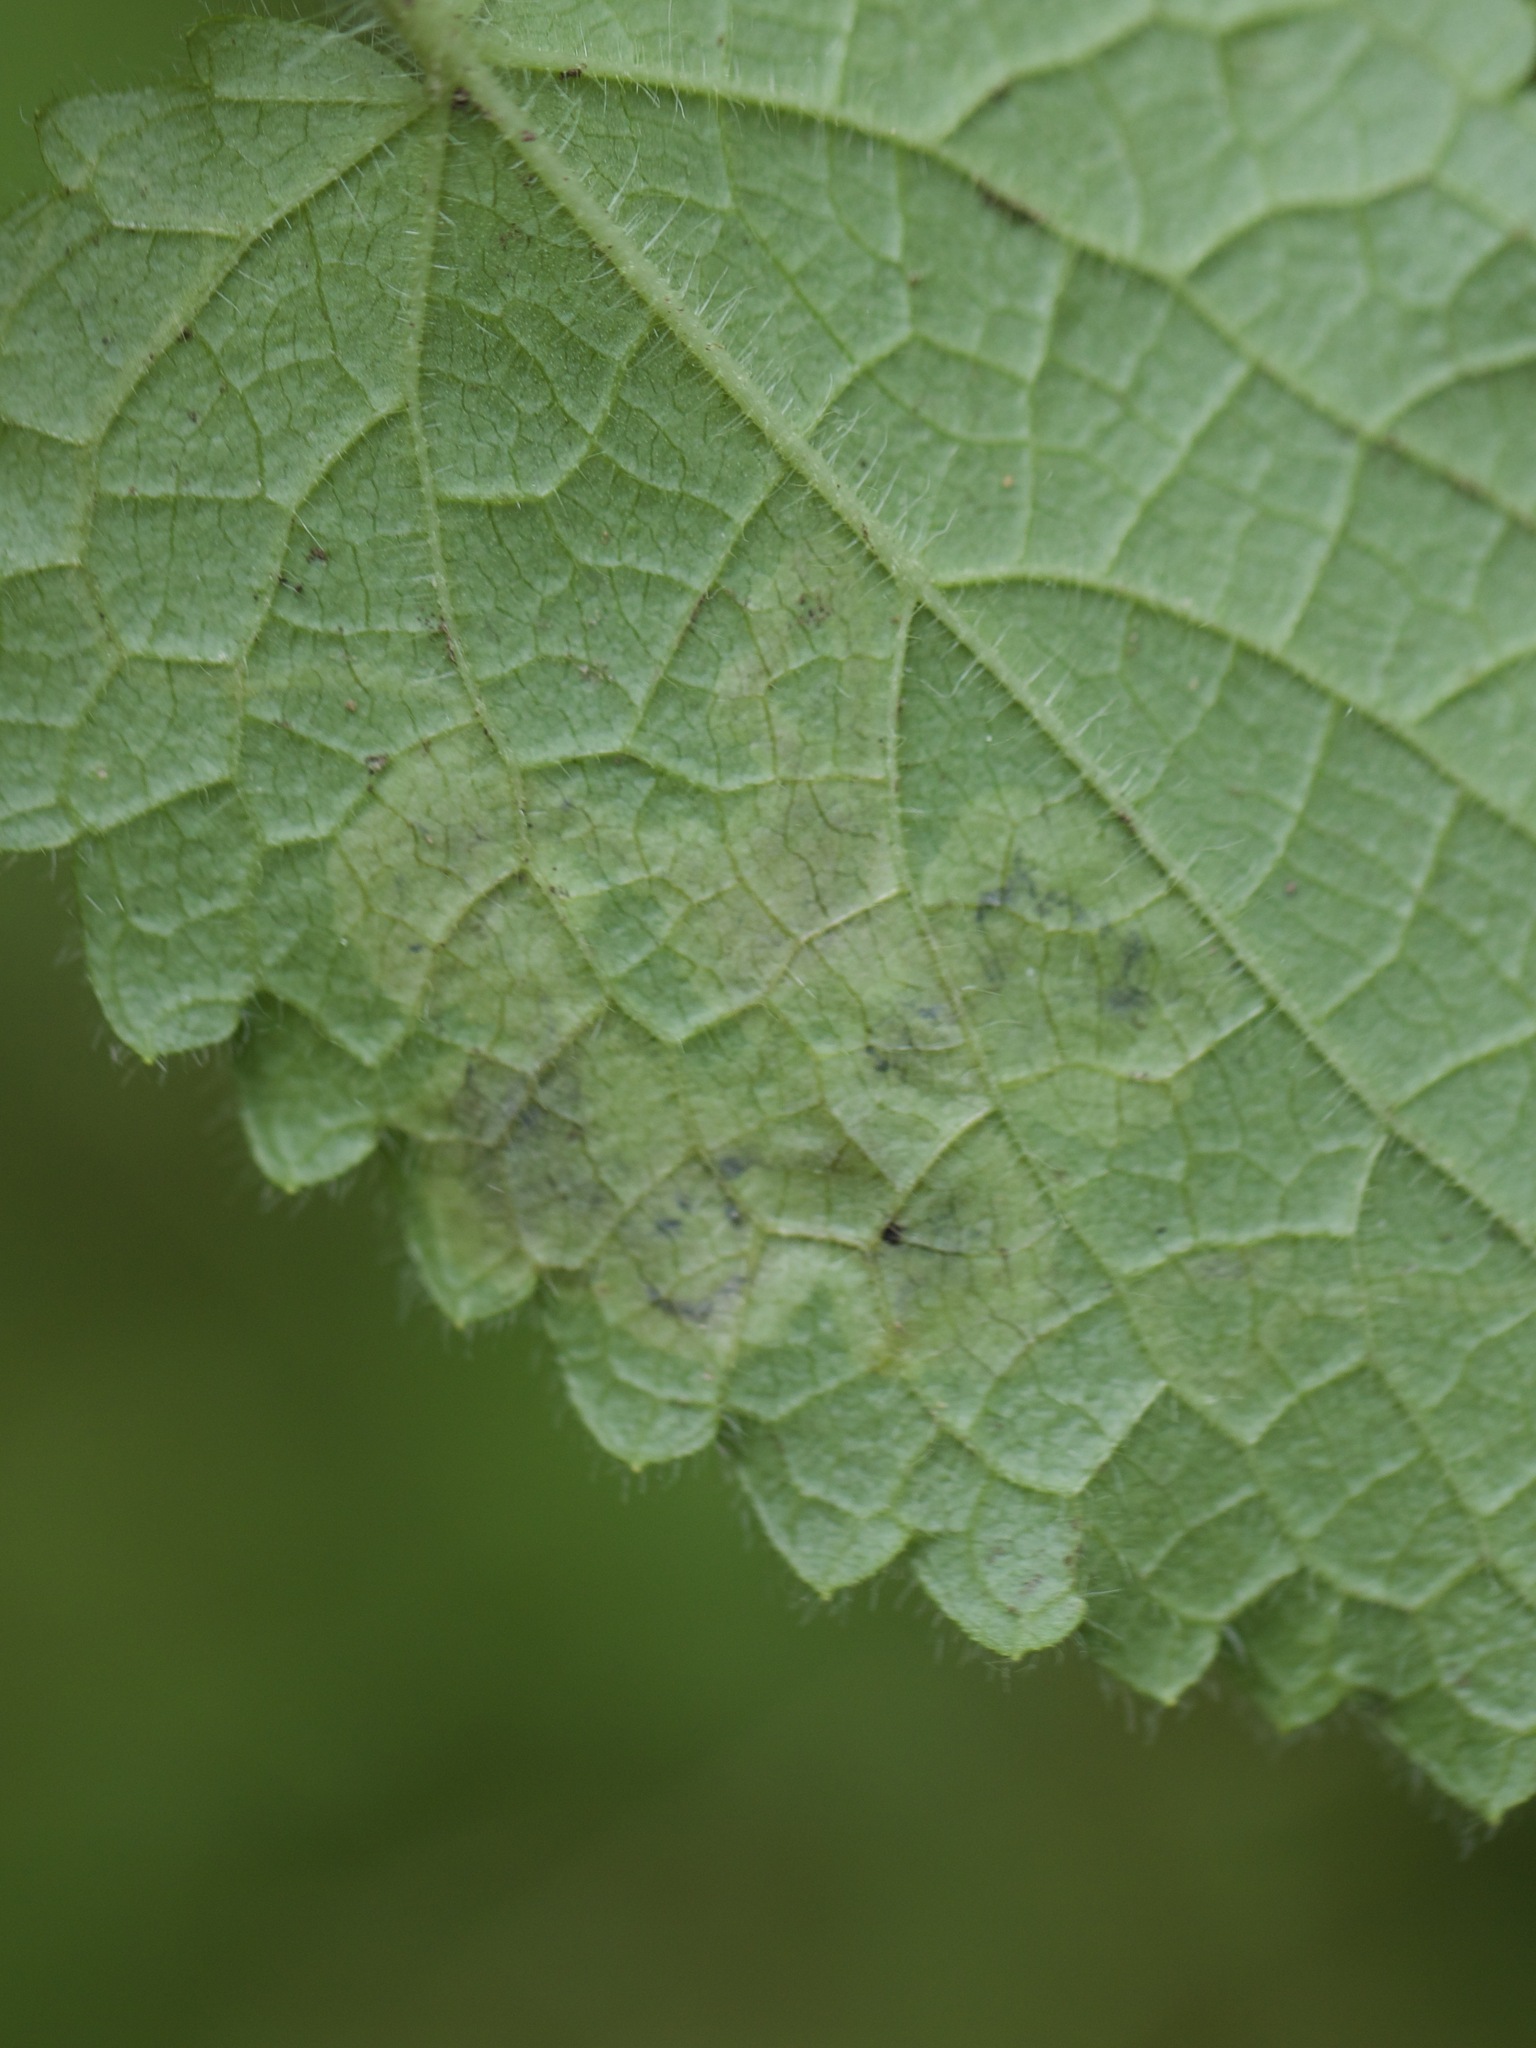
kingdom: Animalia
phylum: Arthropoda
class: Insecta
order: Diptera
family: Agromyzidae
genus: Amauromyza
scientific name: Amauromyza labiatarum
